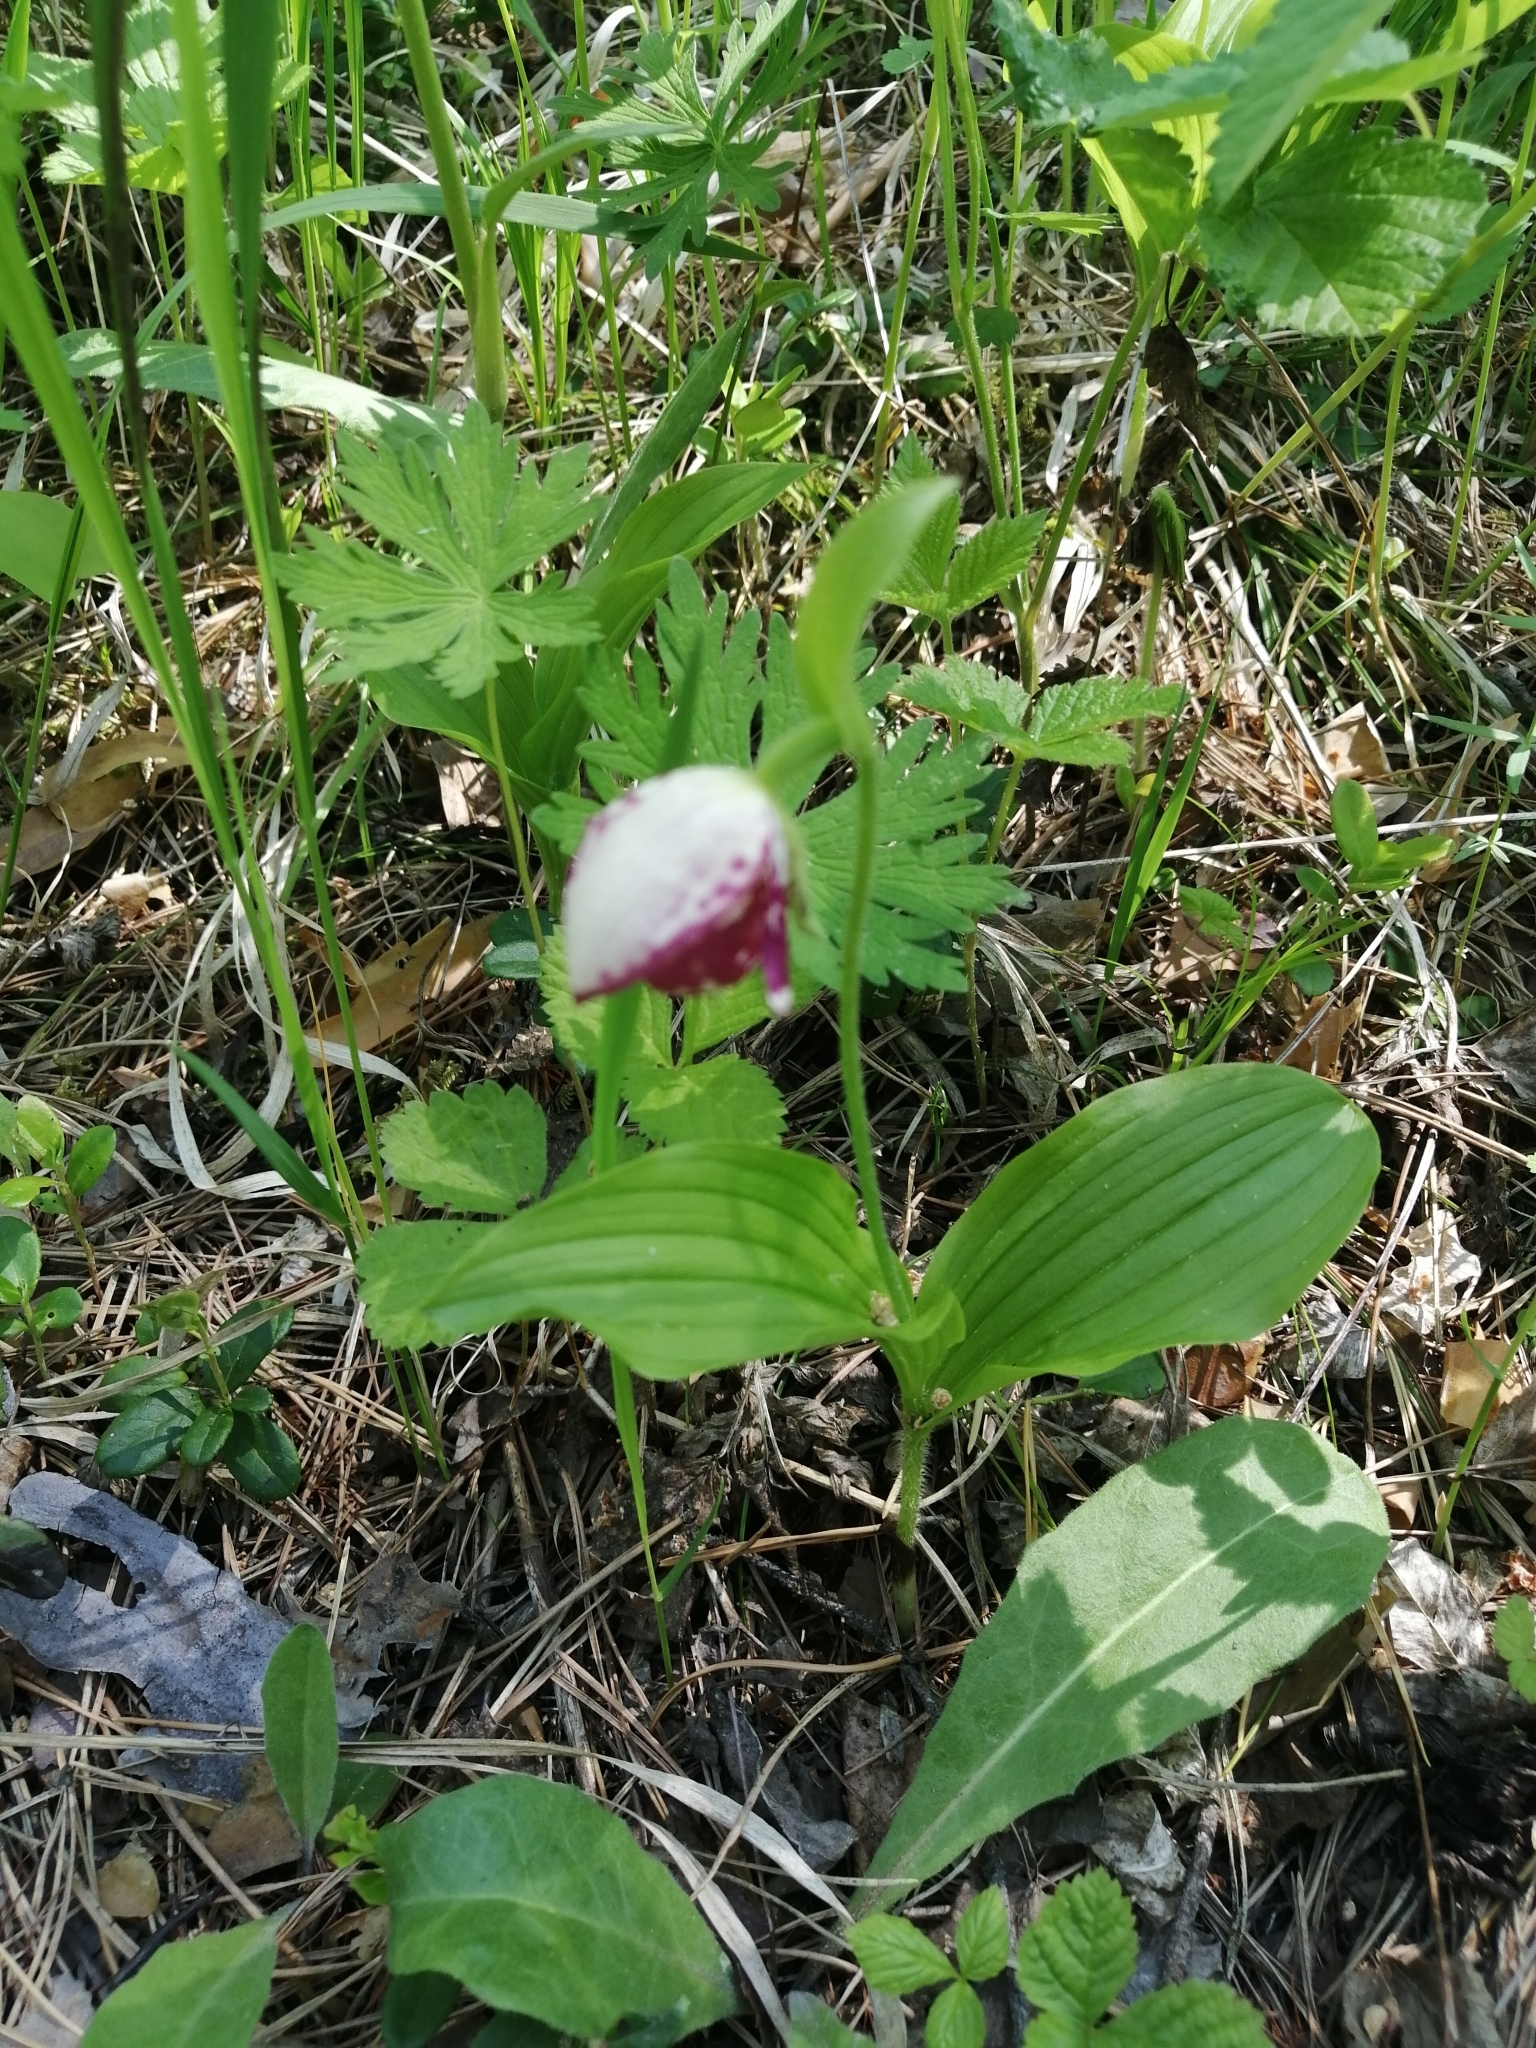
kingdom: Plantae
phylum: Tracheophyta
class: Liliopsida
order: Asparagales
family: Orchidaceae
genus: Cypripedium
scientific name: Cypripedium guttatum
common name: Pink lady slipper
